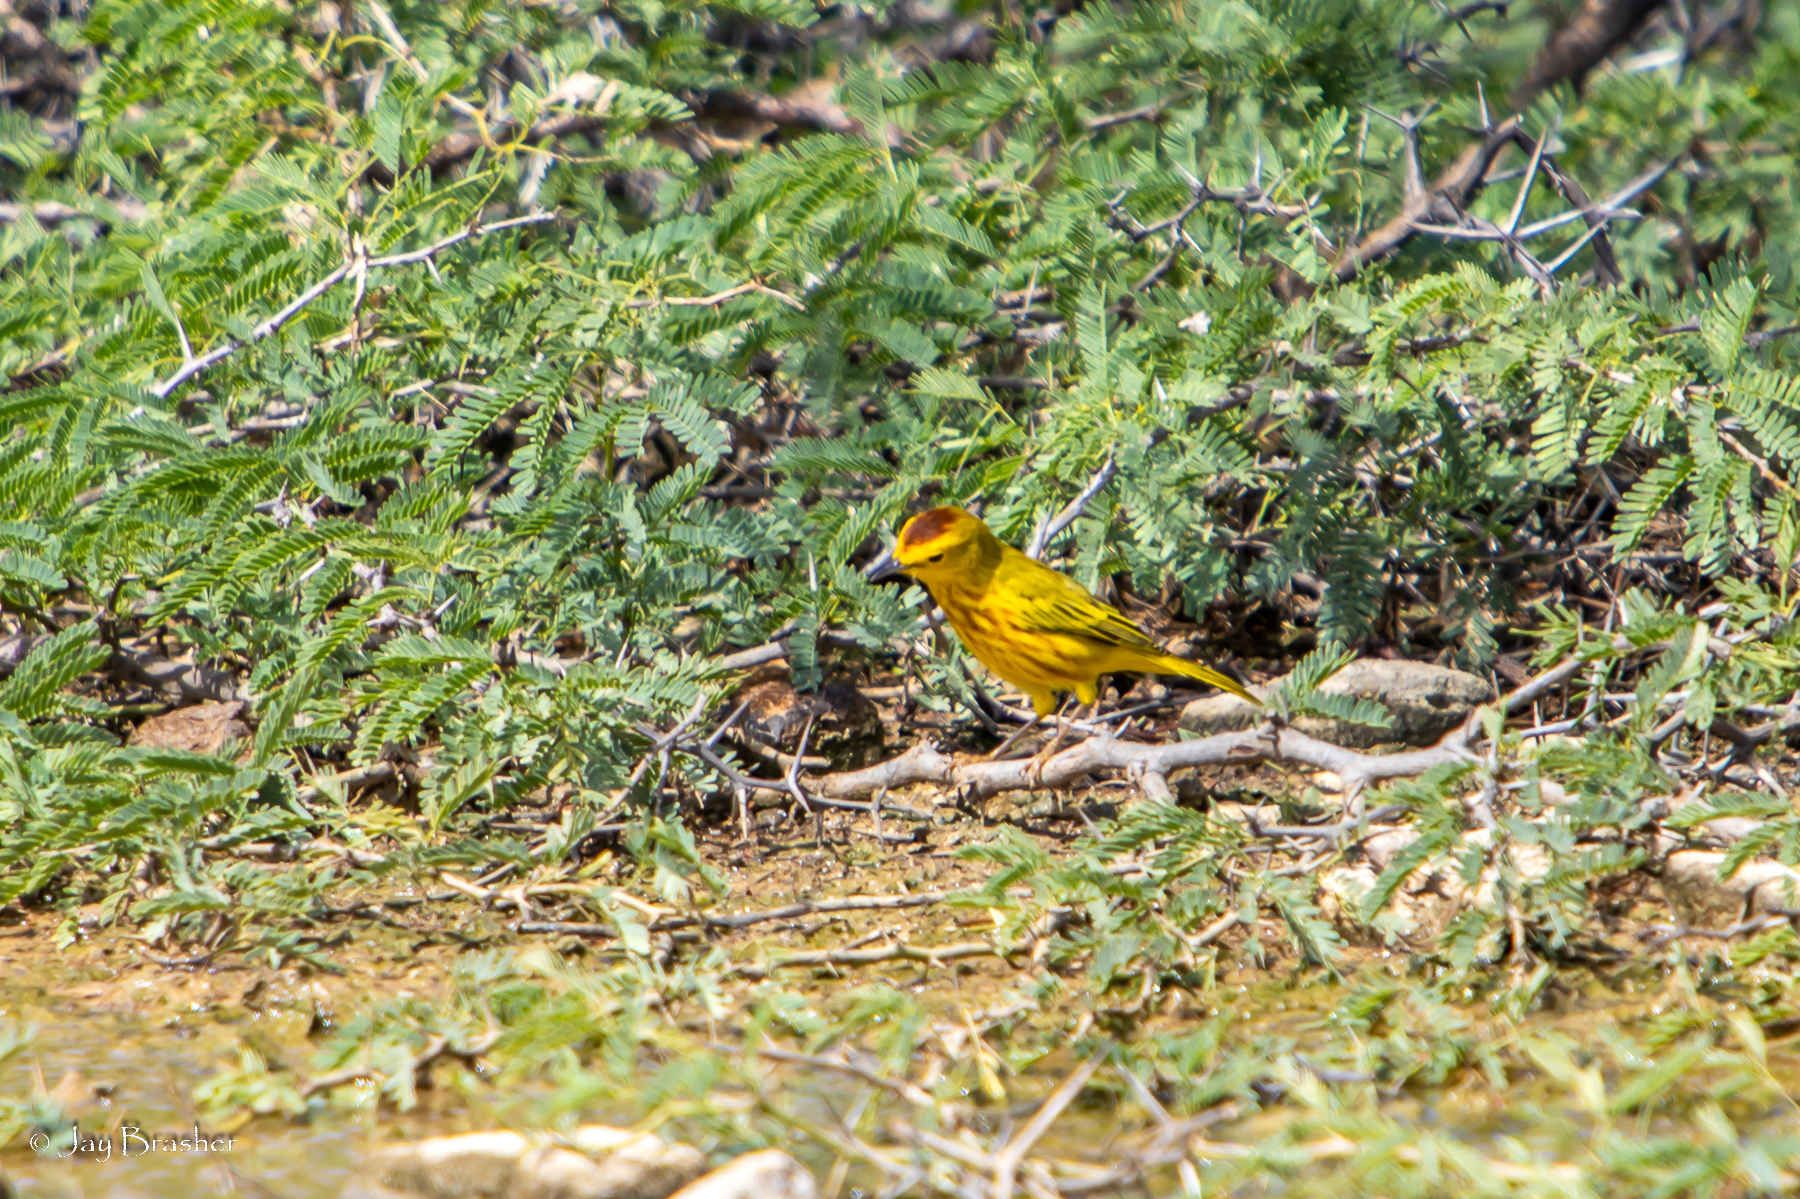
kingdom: Animalia
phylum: Chordata
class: Aves
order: Passeriformes
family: Parulidae
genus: Setophaga
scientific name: Setophaga petechia
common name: Yellow warbler
